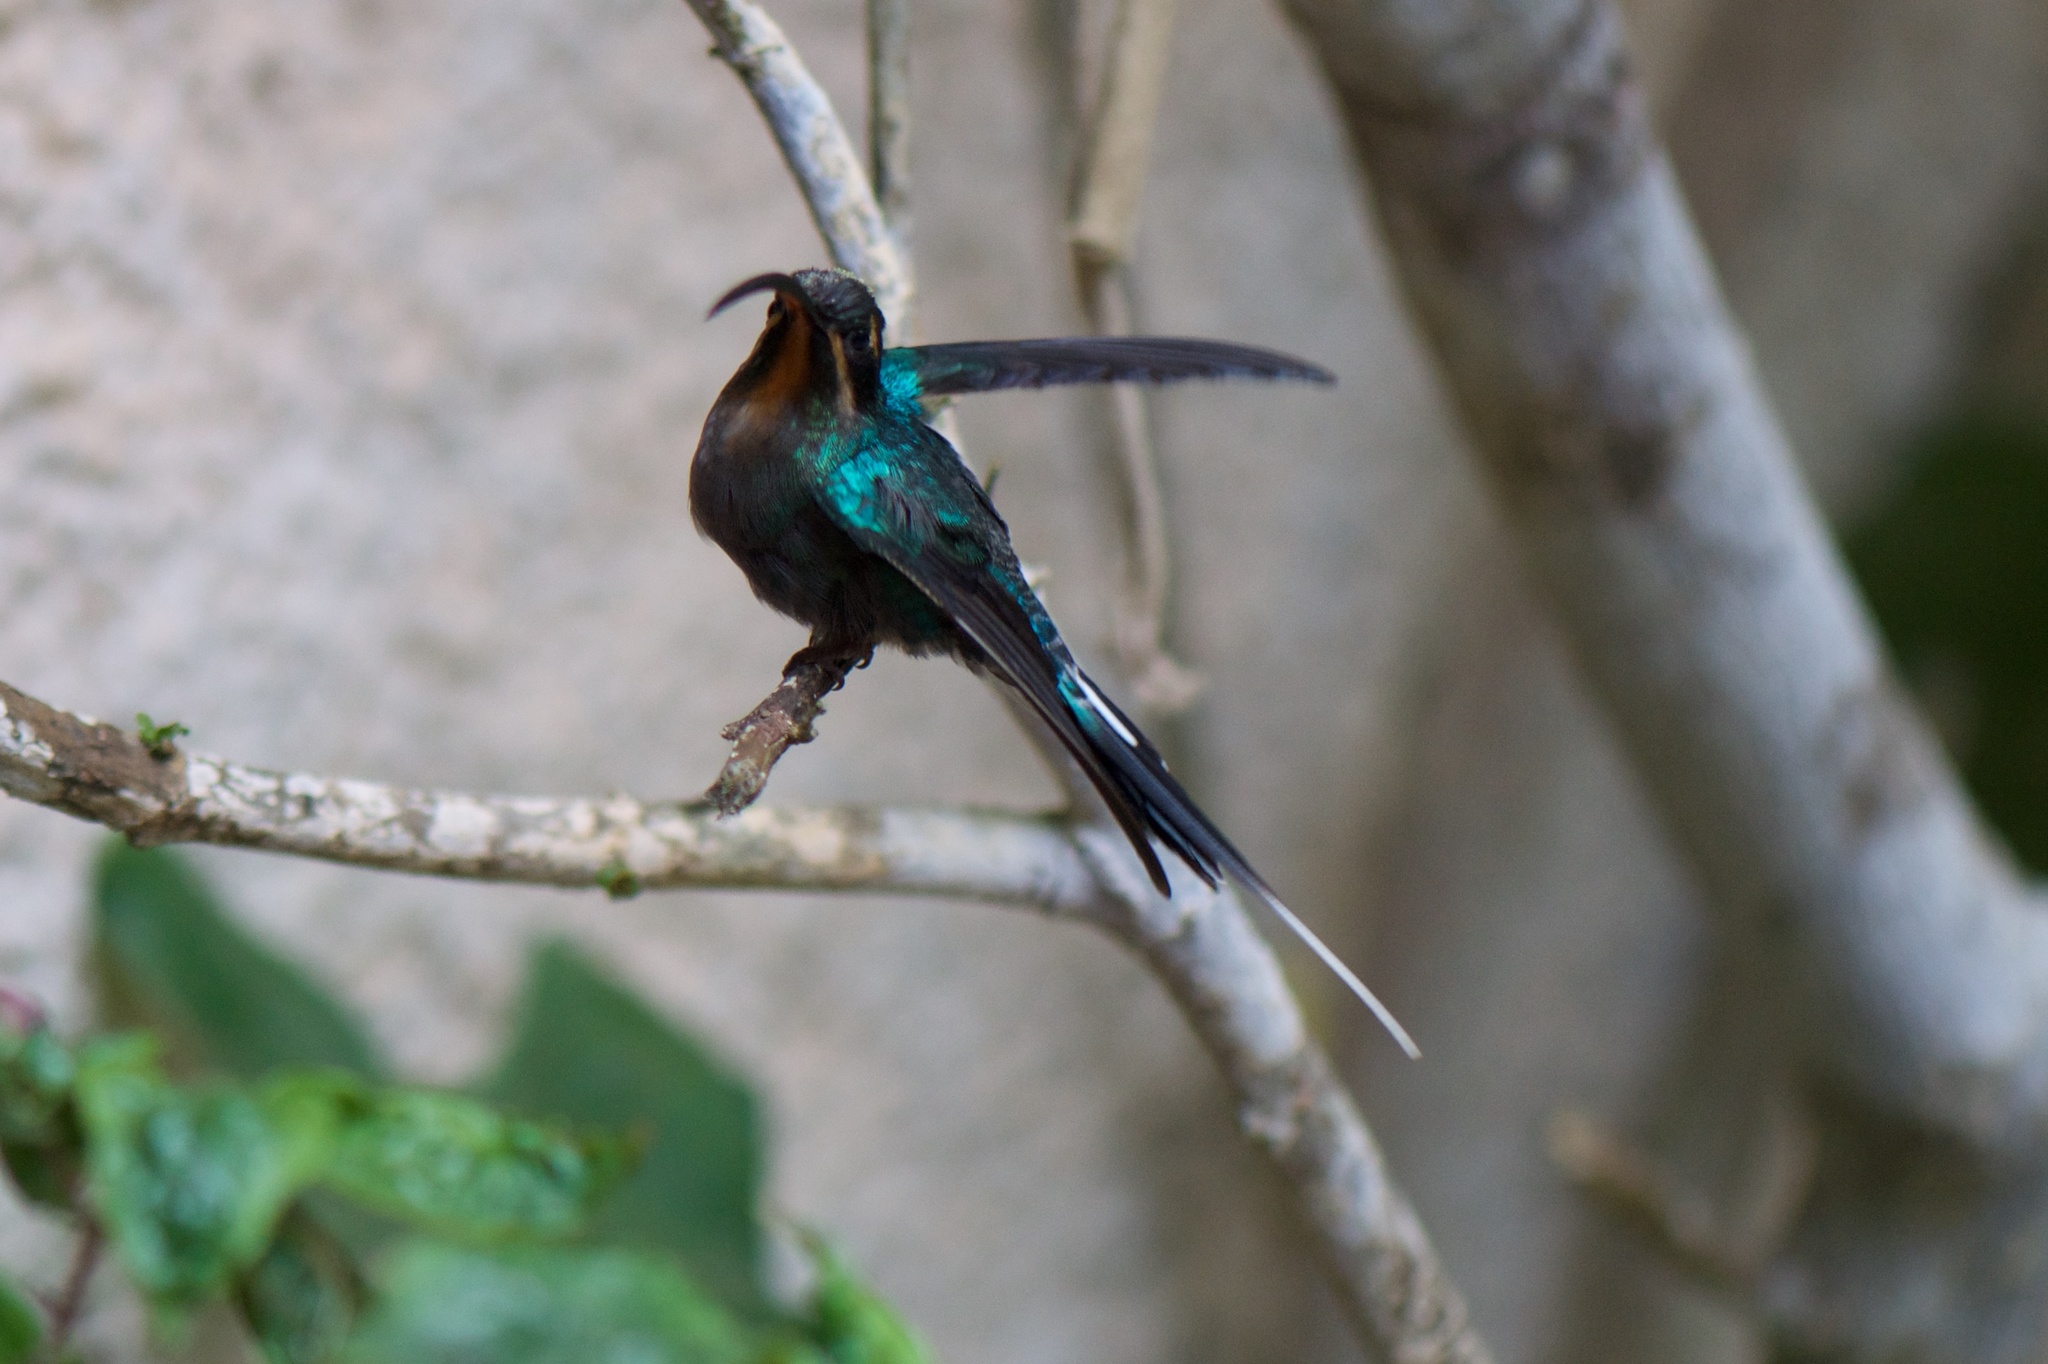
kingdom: Animalia
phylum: Chordata
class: Aves
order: Apodiformes
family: Trochilidae
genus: Phaethornis
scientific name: Phaethornis guy
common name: Green hermit
